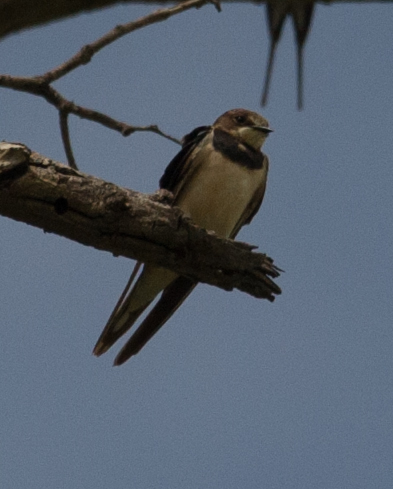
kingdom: Animalia
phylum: Chordata
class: Aves
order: Passeriformes
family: Hirundinidae
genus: Hirundo
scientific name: Hirundo rustica
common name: Barn swallow
